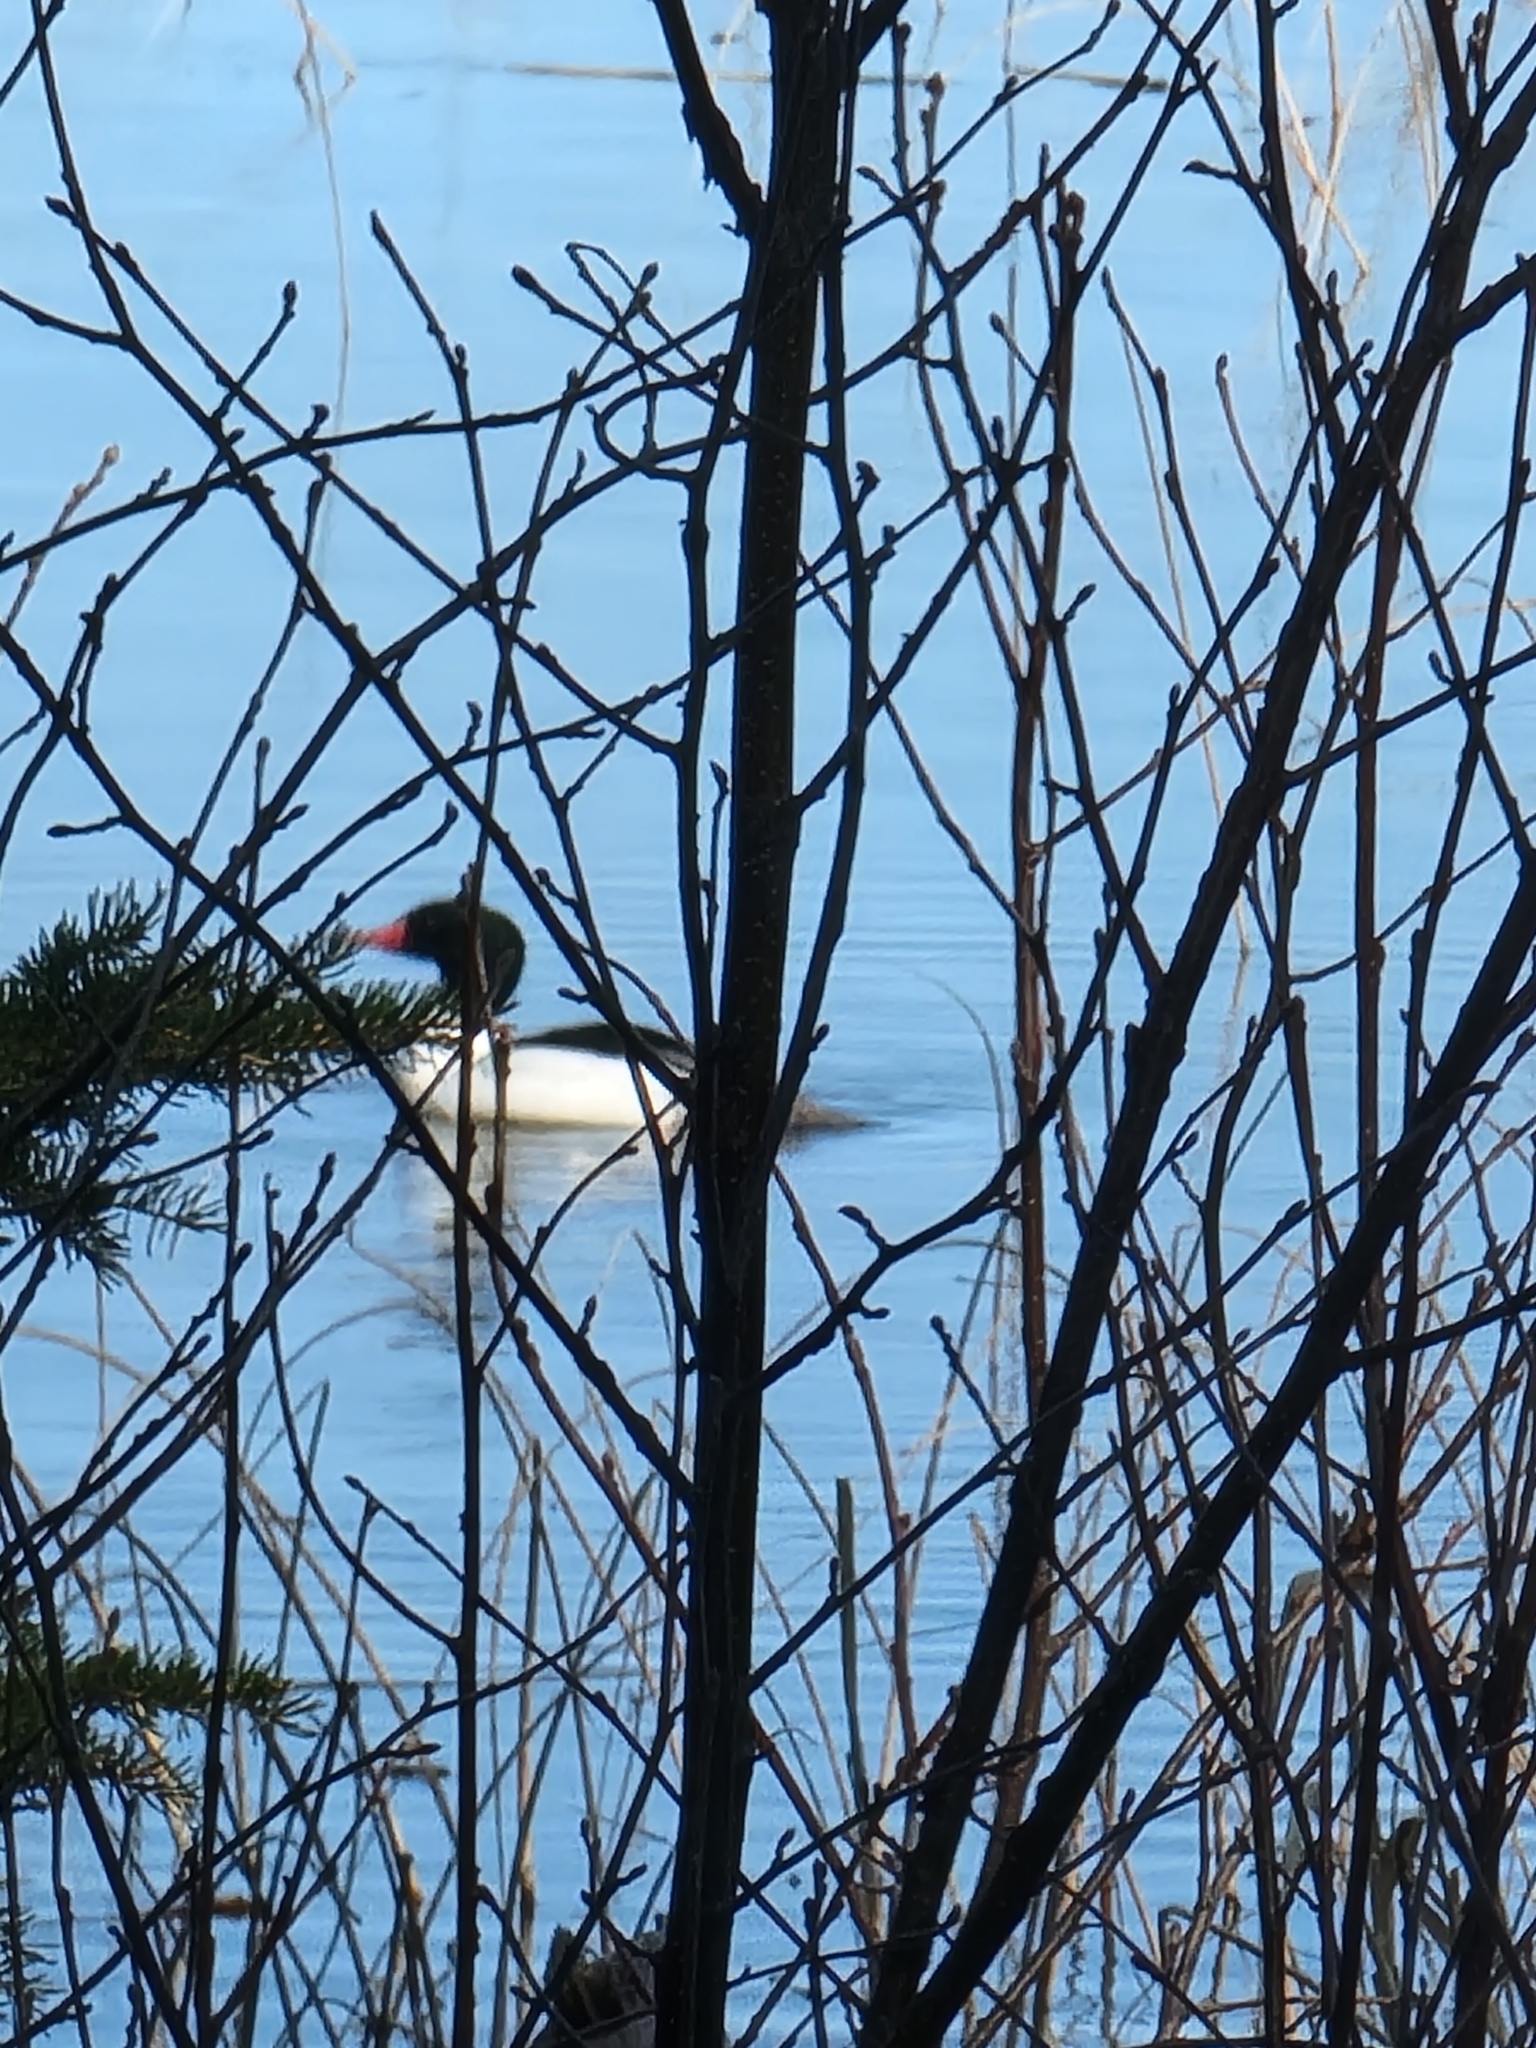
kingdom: Animalia
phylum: Chordata
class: Aves
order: Anseriformes
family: Anatidae
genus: Mergus
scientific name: Mergus merganser
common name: Common merganser
